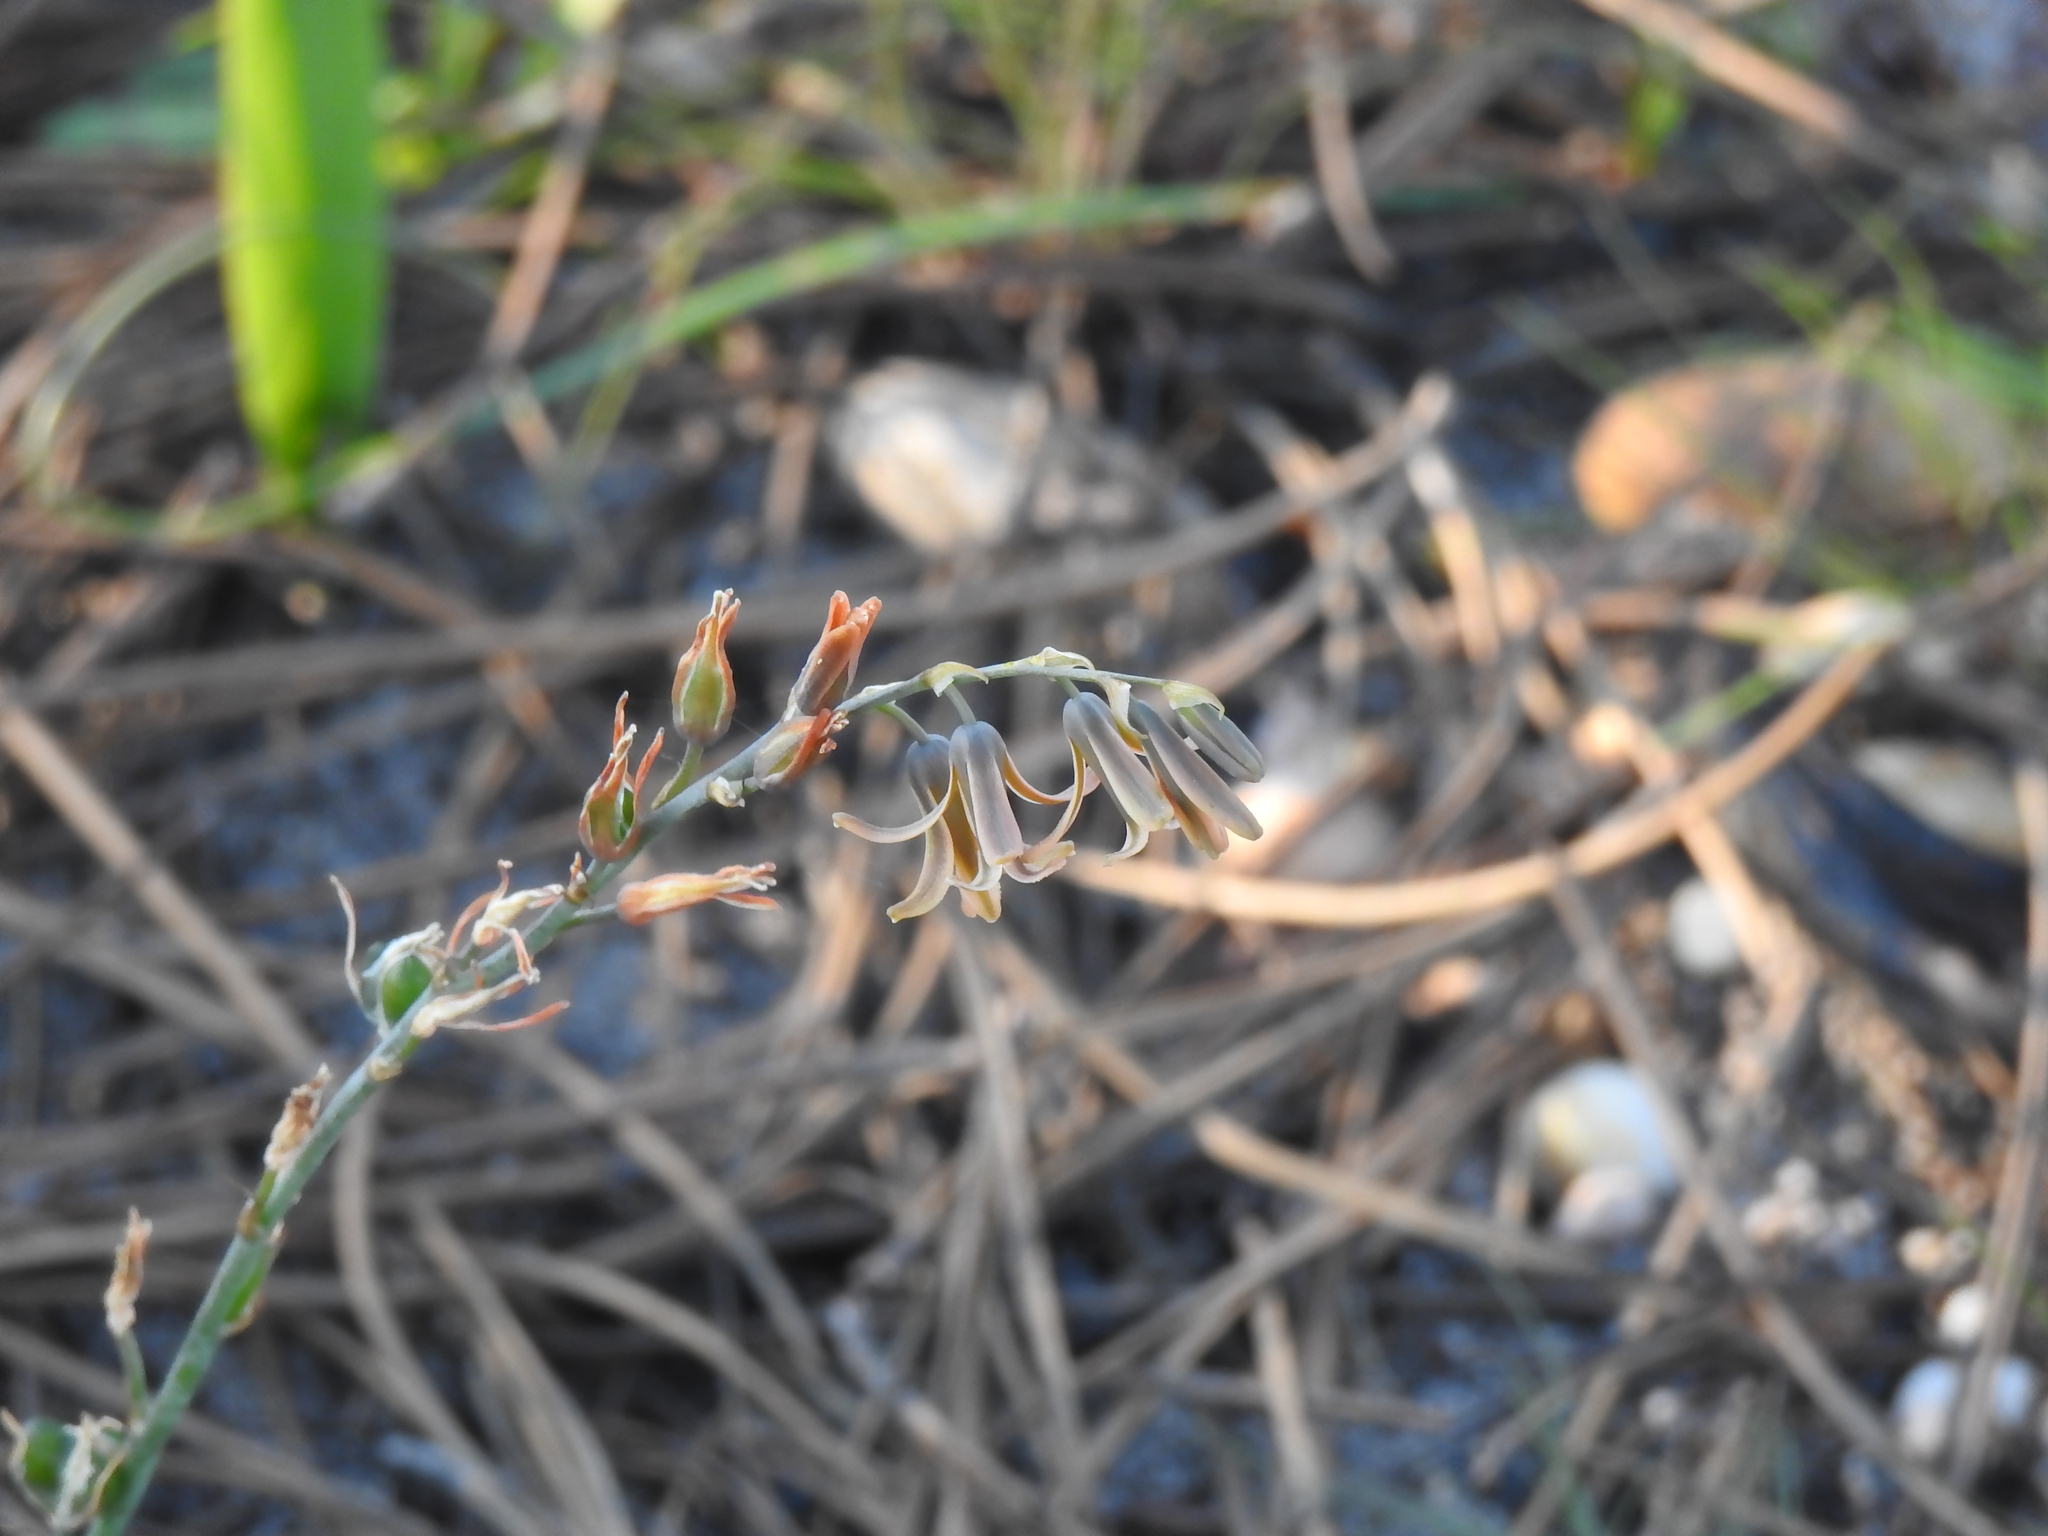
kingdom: Plantae
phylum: Tracheophyta
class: Liliopsida
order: Asparagales
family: Asparagaceae
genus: Dipcadi
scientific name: Dipcadi serotinum
